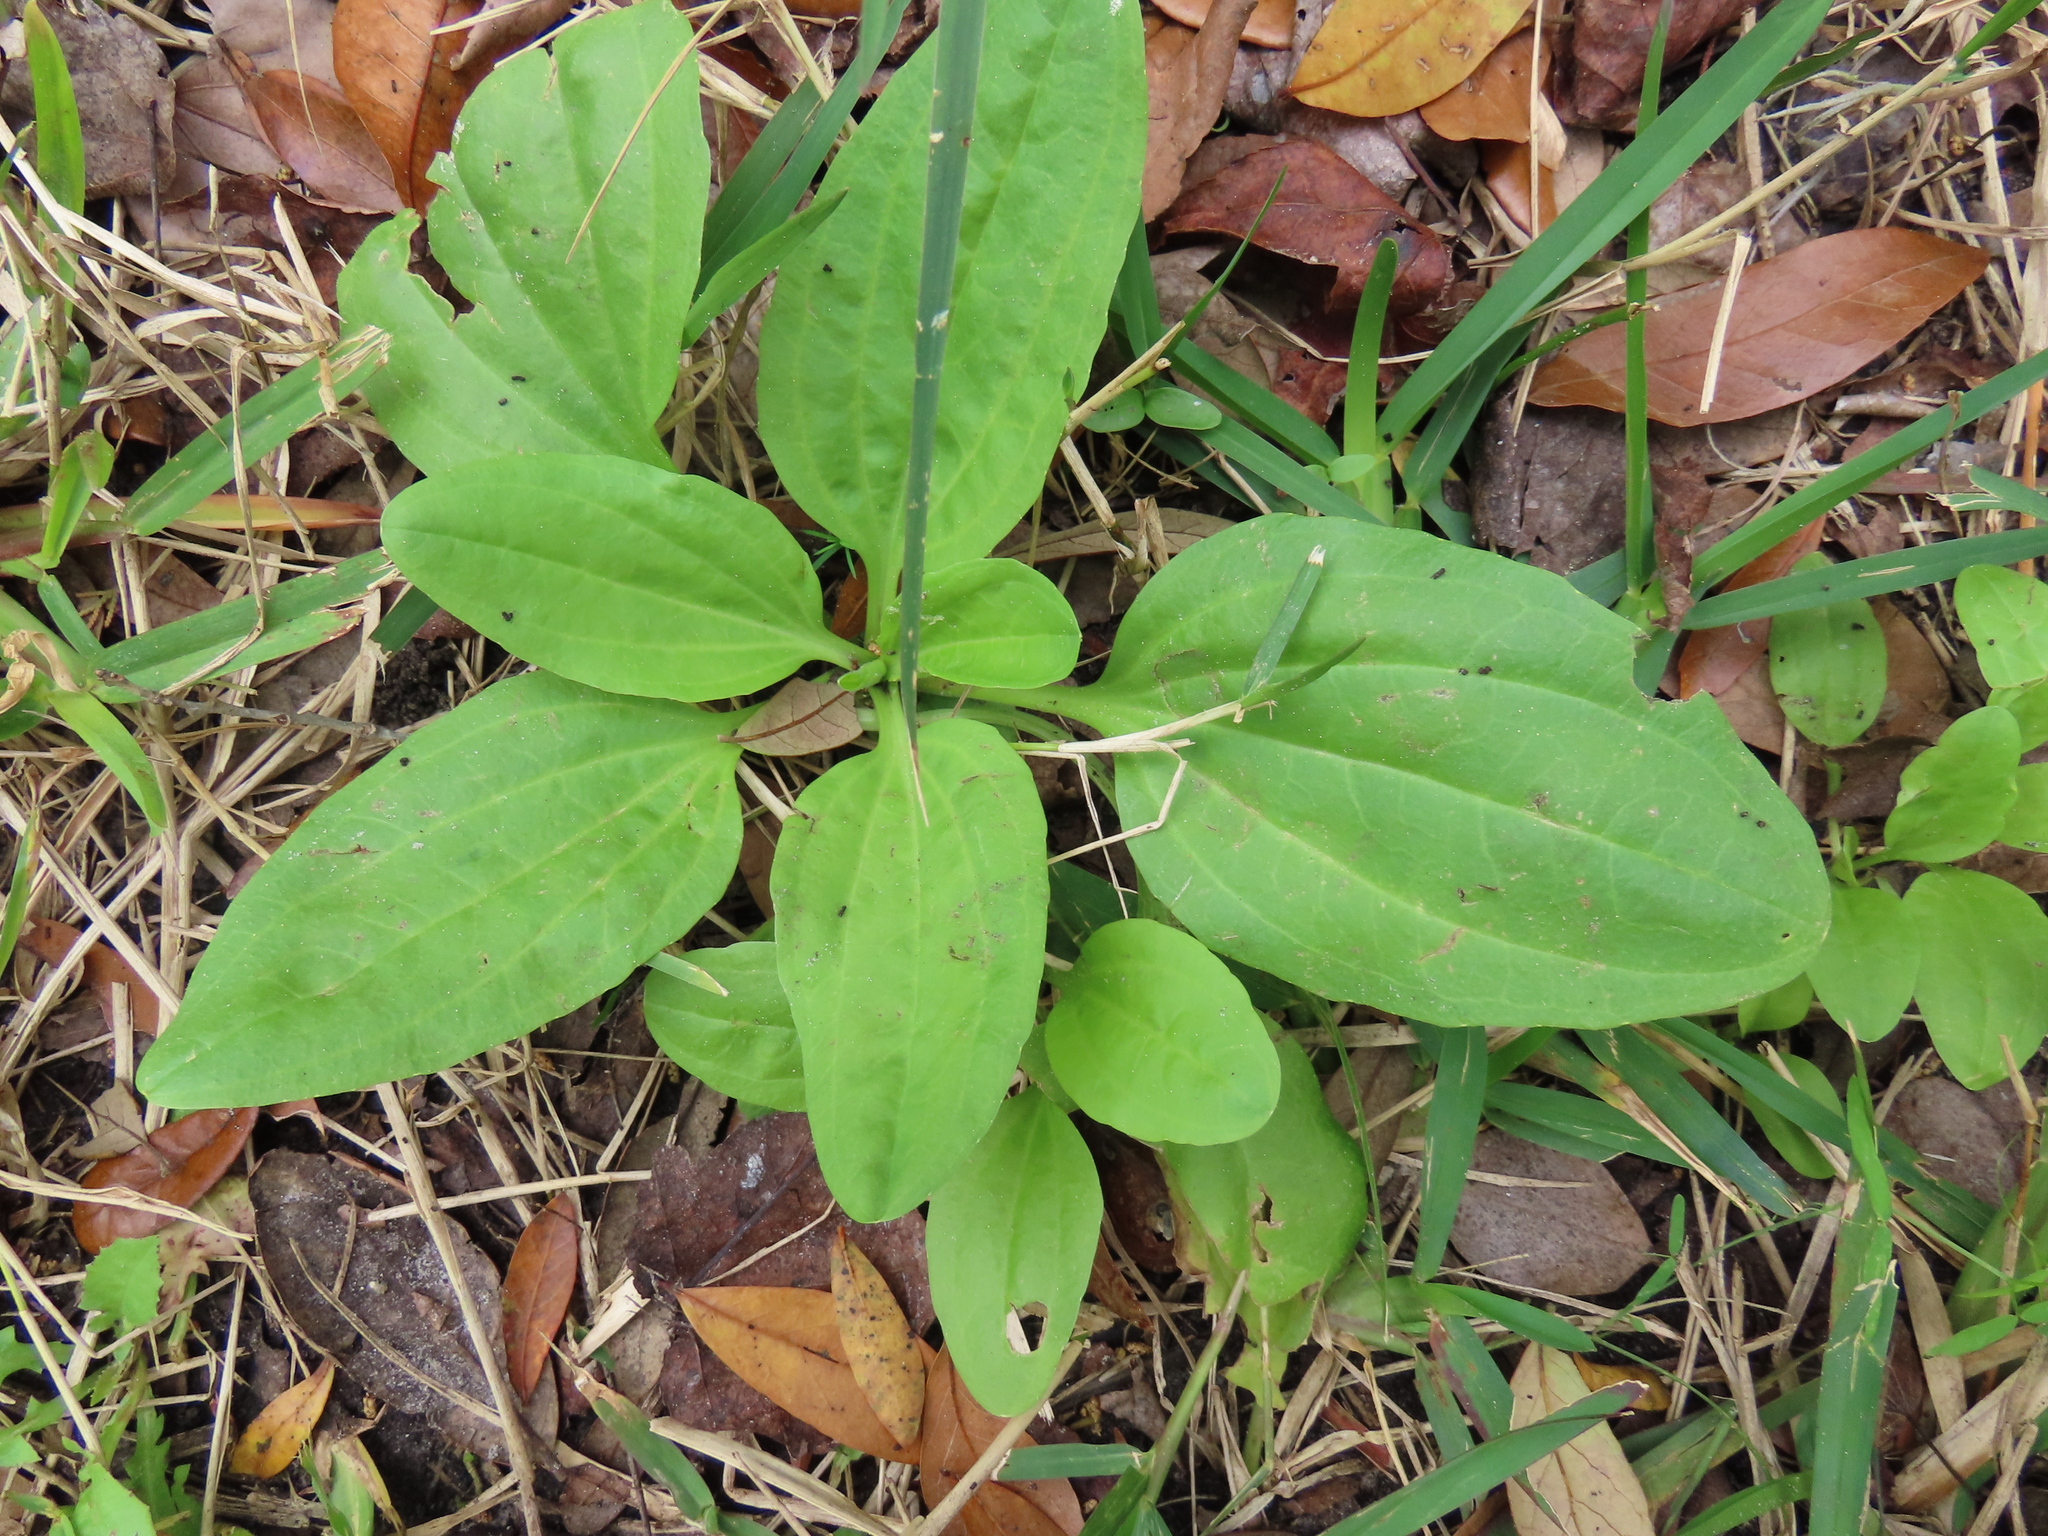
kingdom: Plantae
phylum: Tracheophyta
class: Magnoliopsida
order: Lamiales
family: Plantaginaceae
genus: Plantago
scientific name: Plantago major
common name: Common plantain
